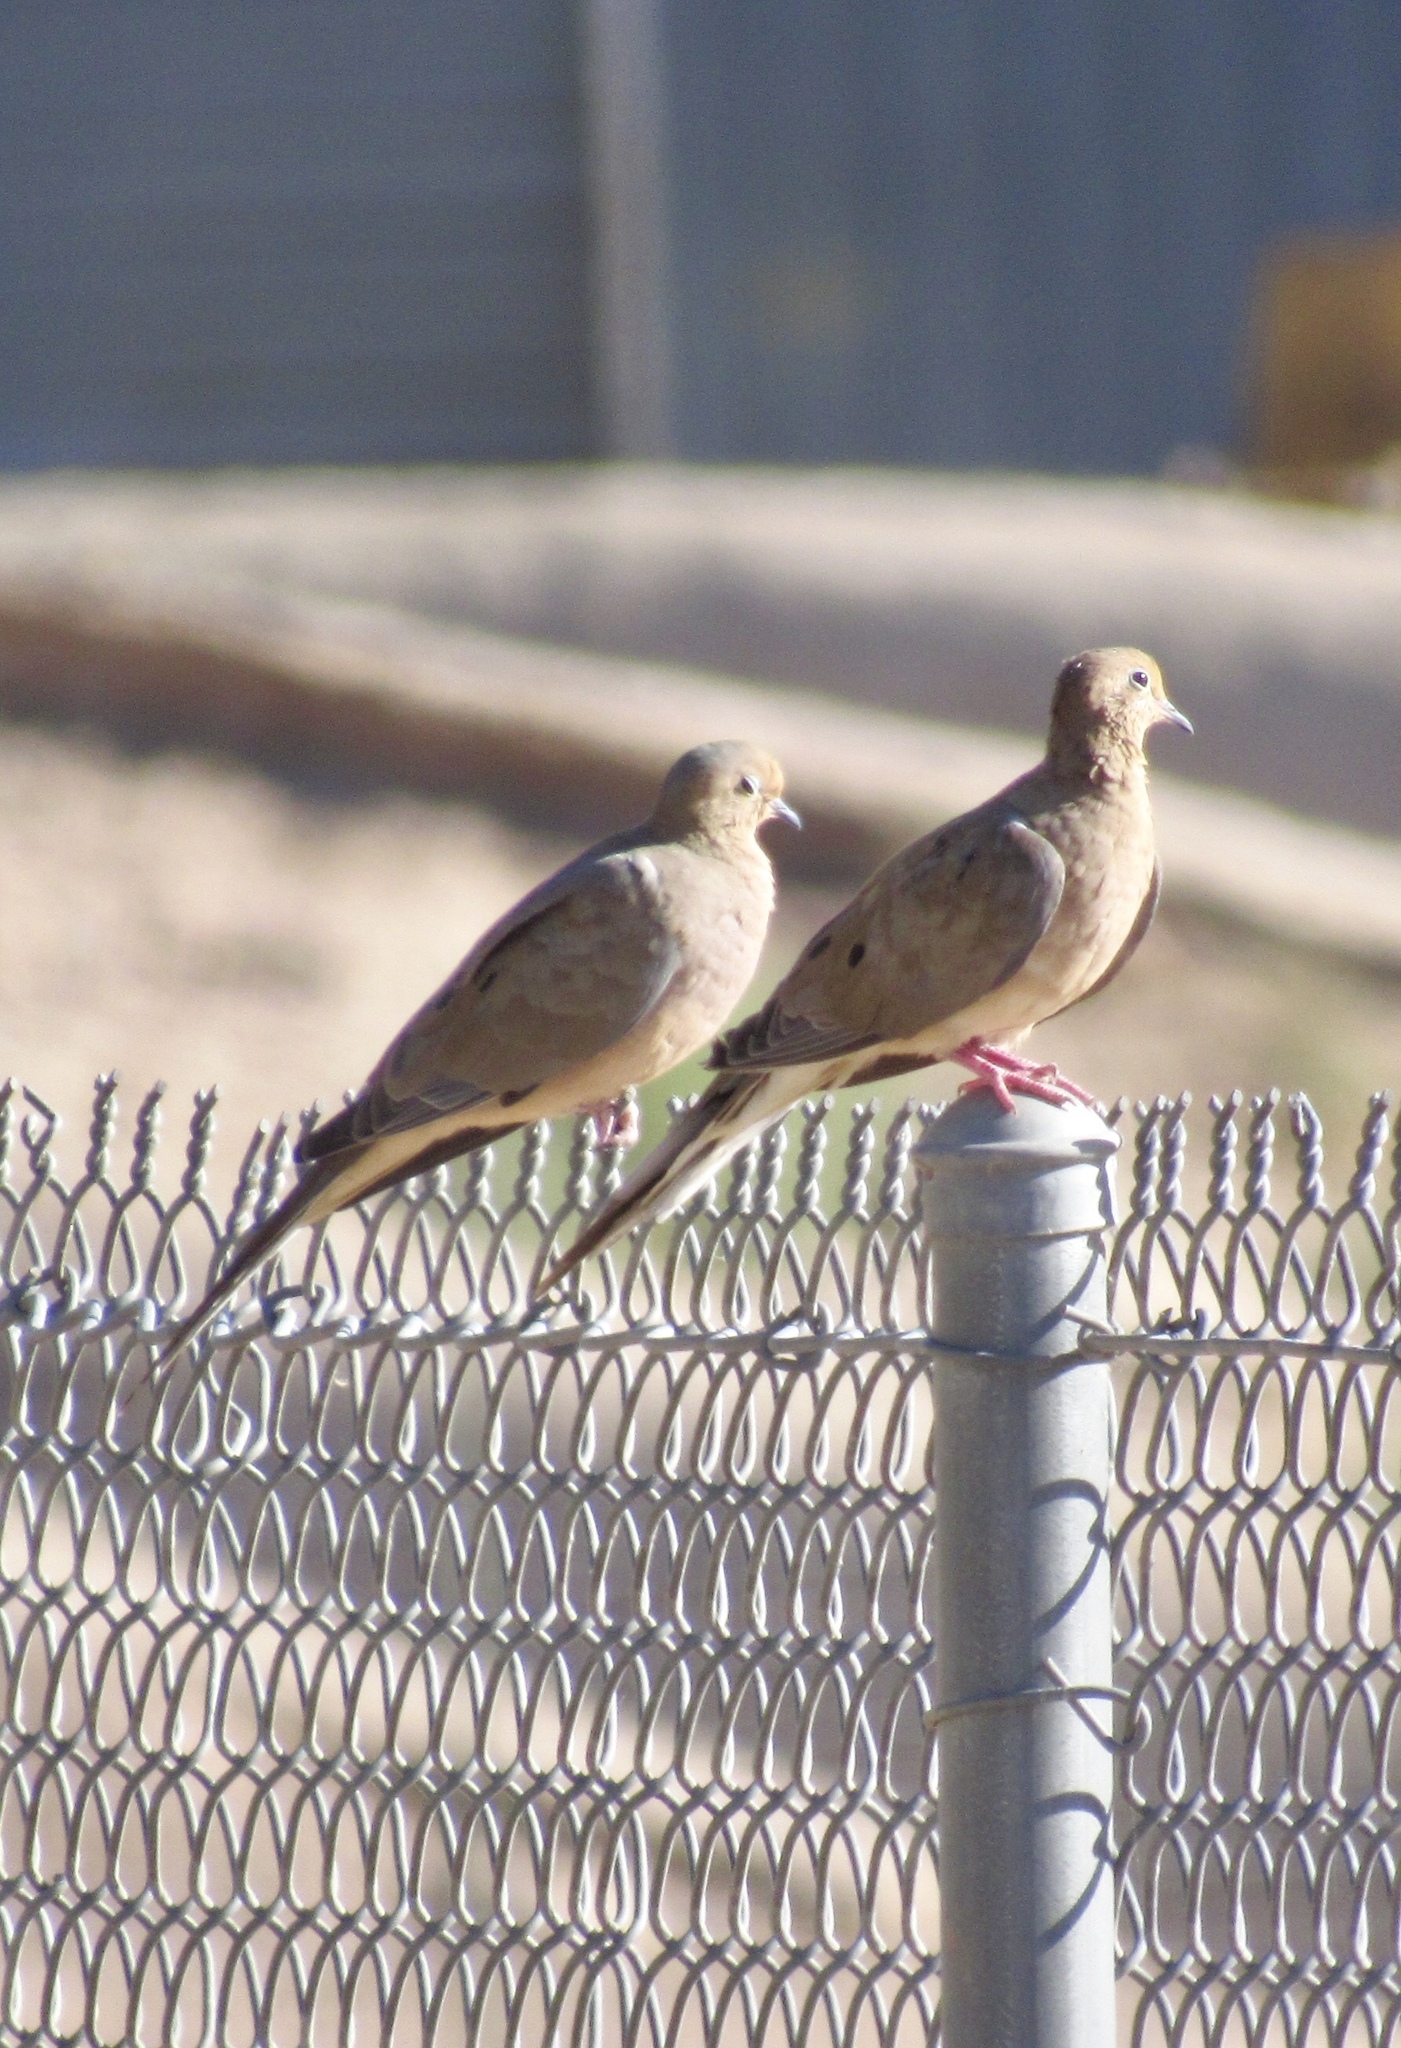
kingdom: Animalia
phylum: Chordata
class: Aves
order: Columbiformes
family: Columbidae
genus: Zenaida
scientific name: Zenaida macroura
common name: Mourning dove
